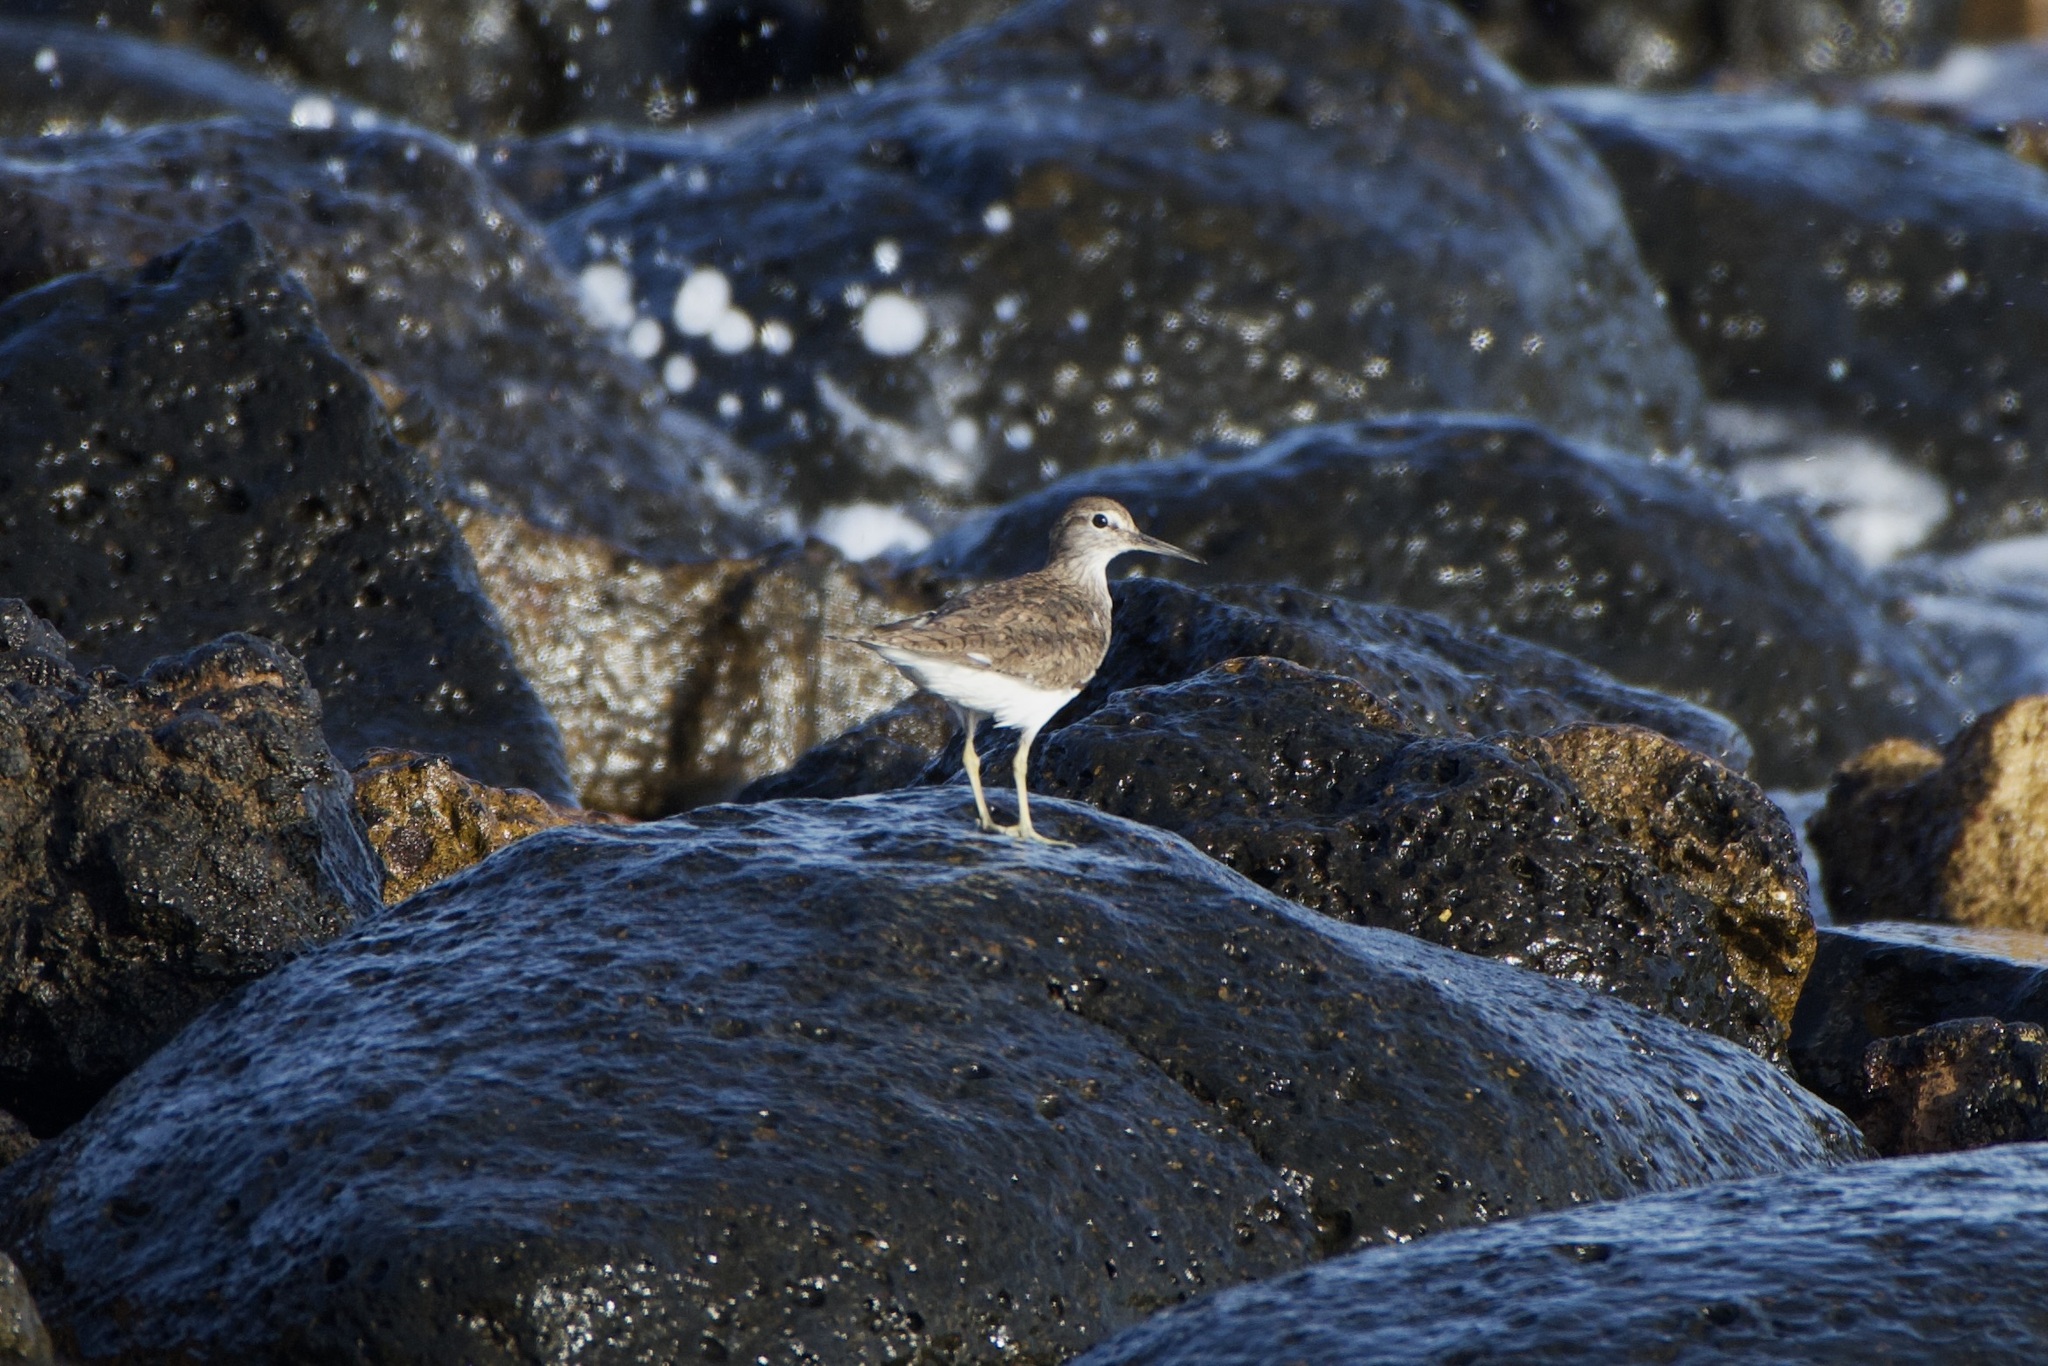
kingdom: Animalia
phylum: Chordata
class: Aves
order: Charadriiformes
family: Scolopacidae
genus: Actitis
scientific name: Actitis hypoleucos
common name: Common sandpiper
